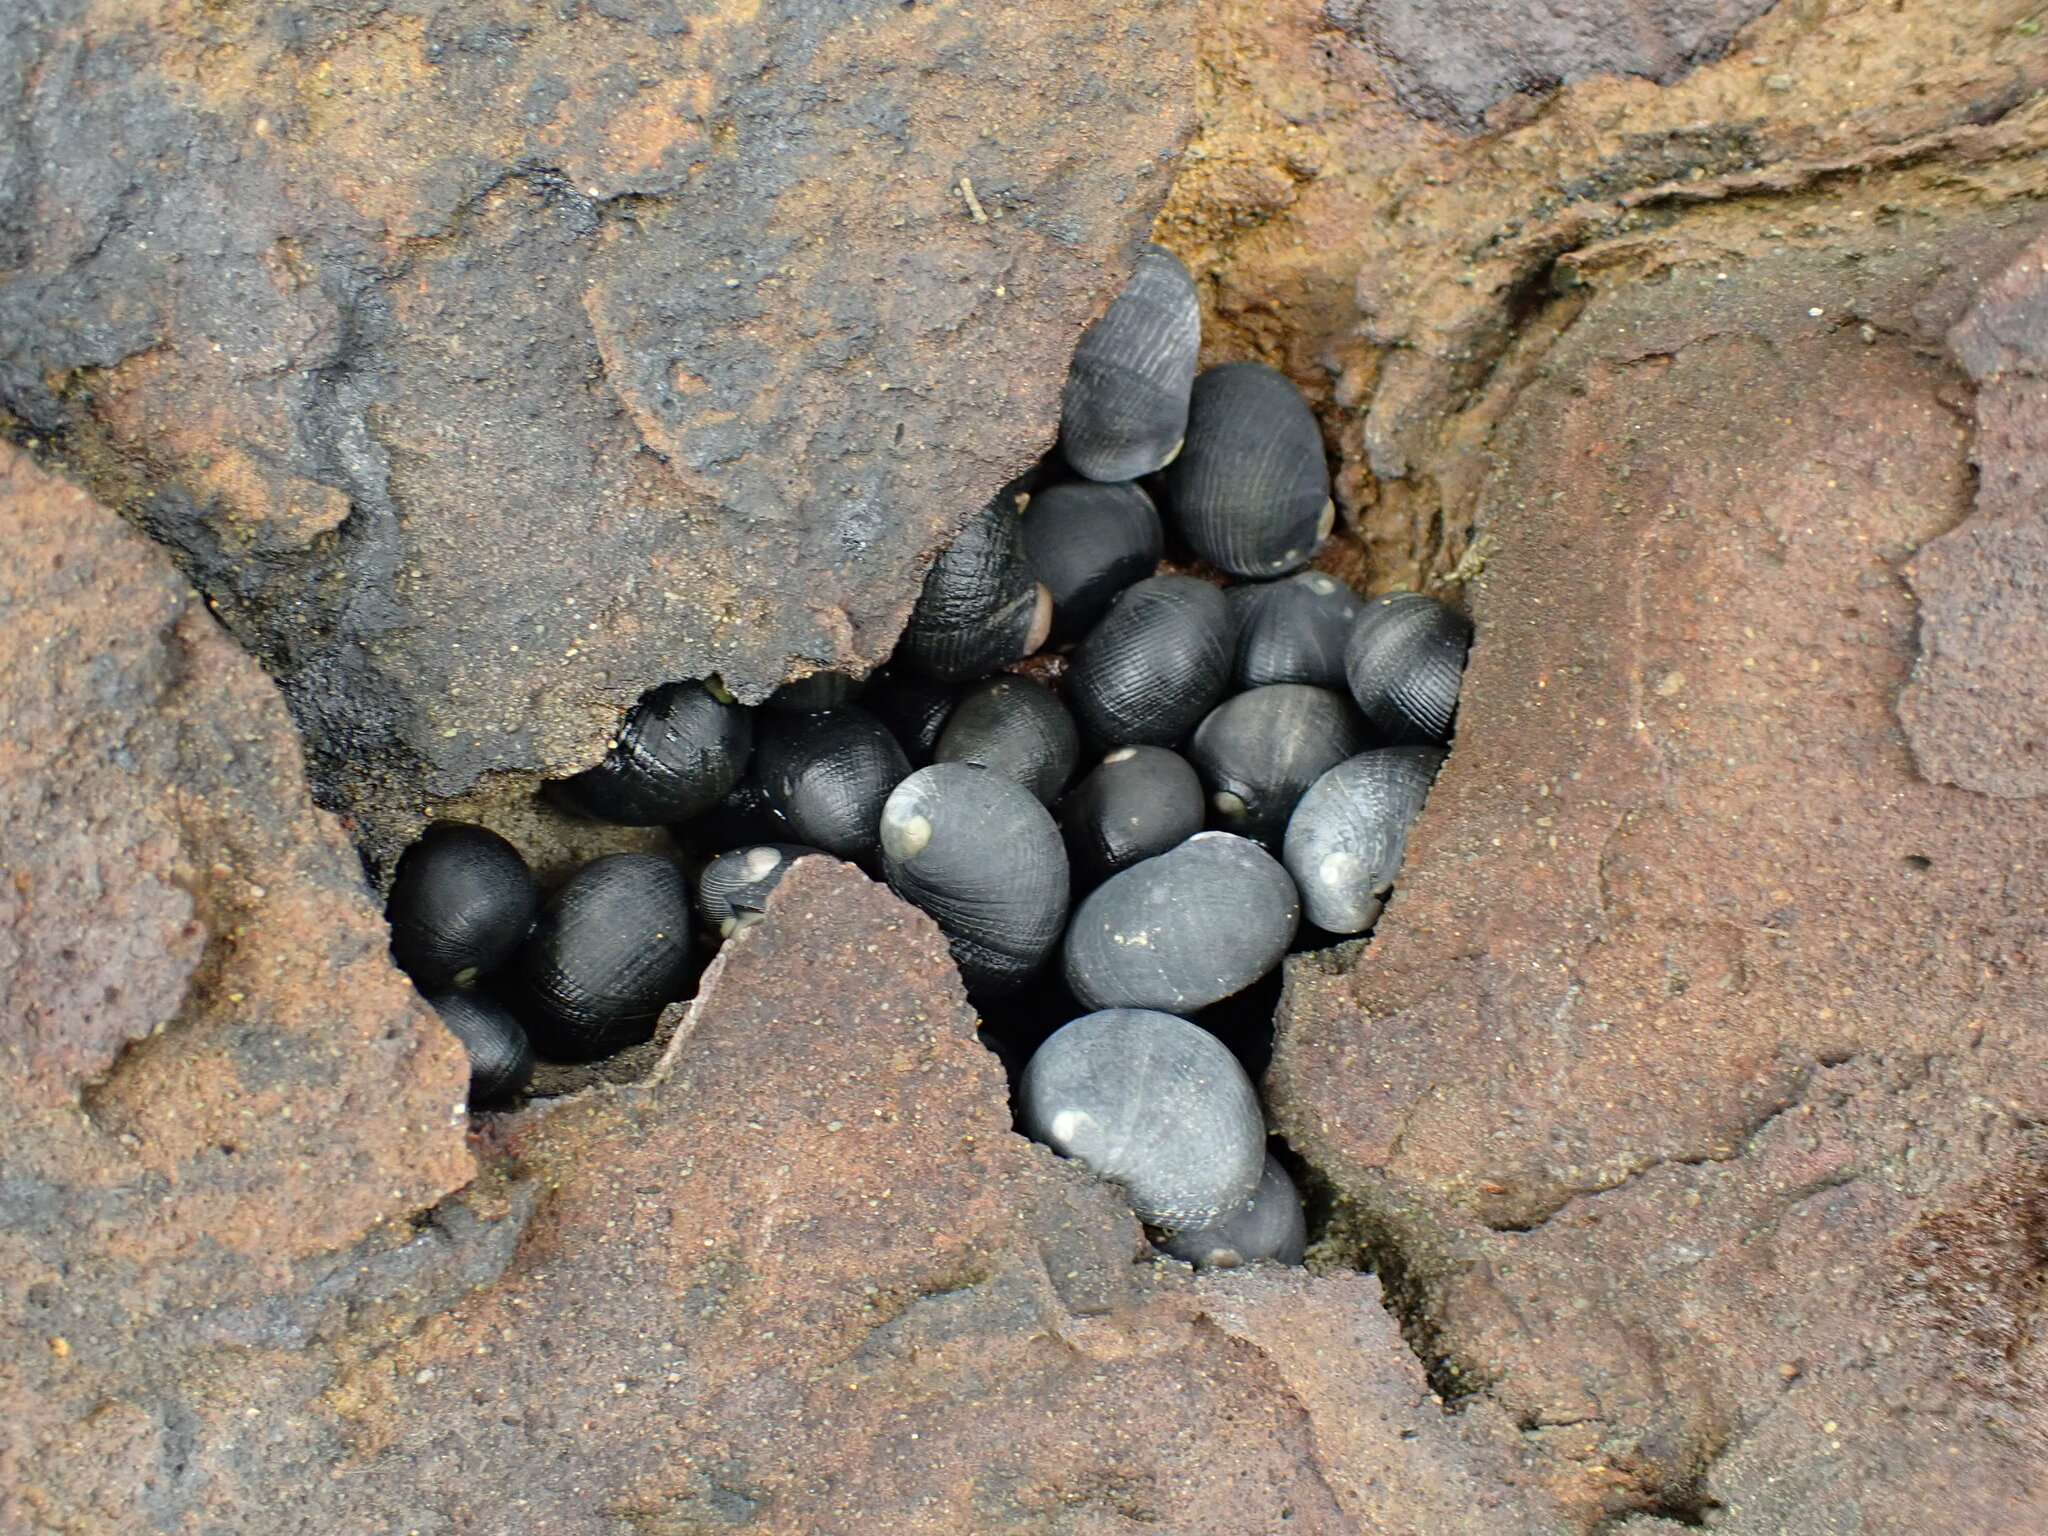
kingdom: Animalia
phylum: Mollusca
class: Gastropoda
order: Cycloneritida
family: Neritidae
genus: Nerita
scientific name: Nerita melanotragus
